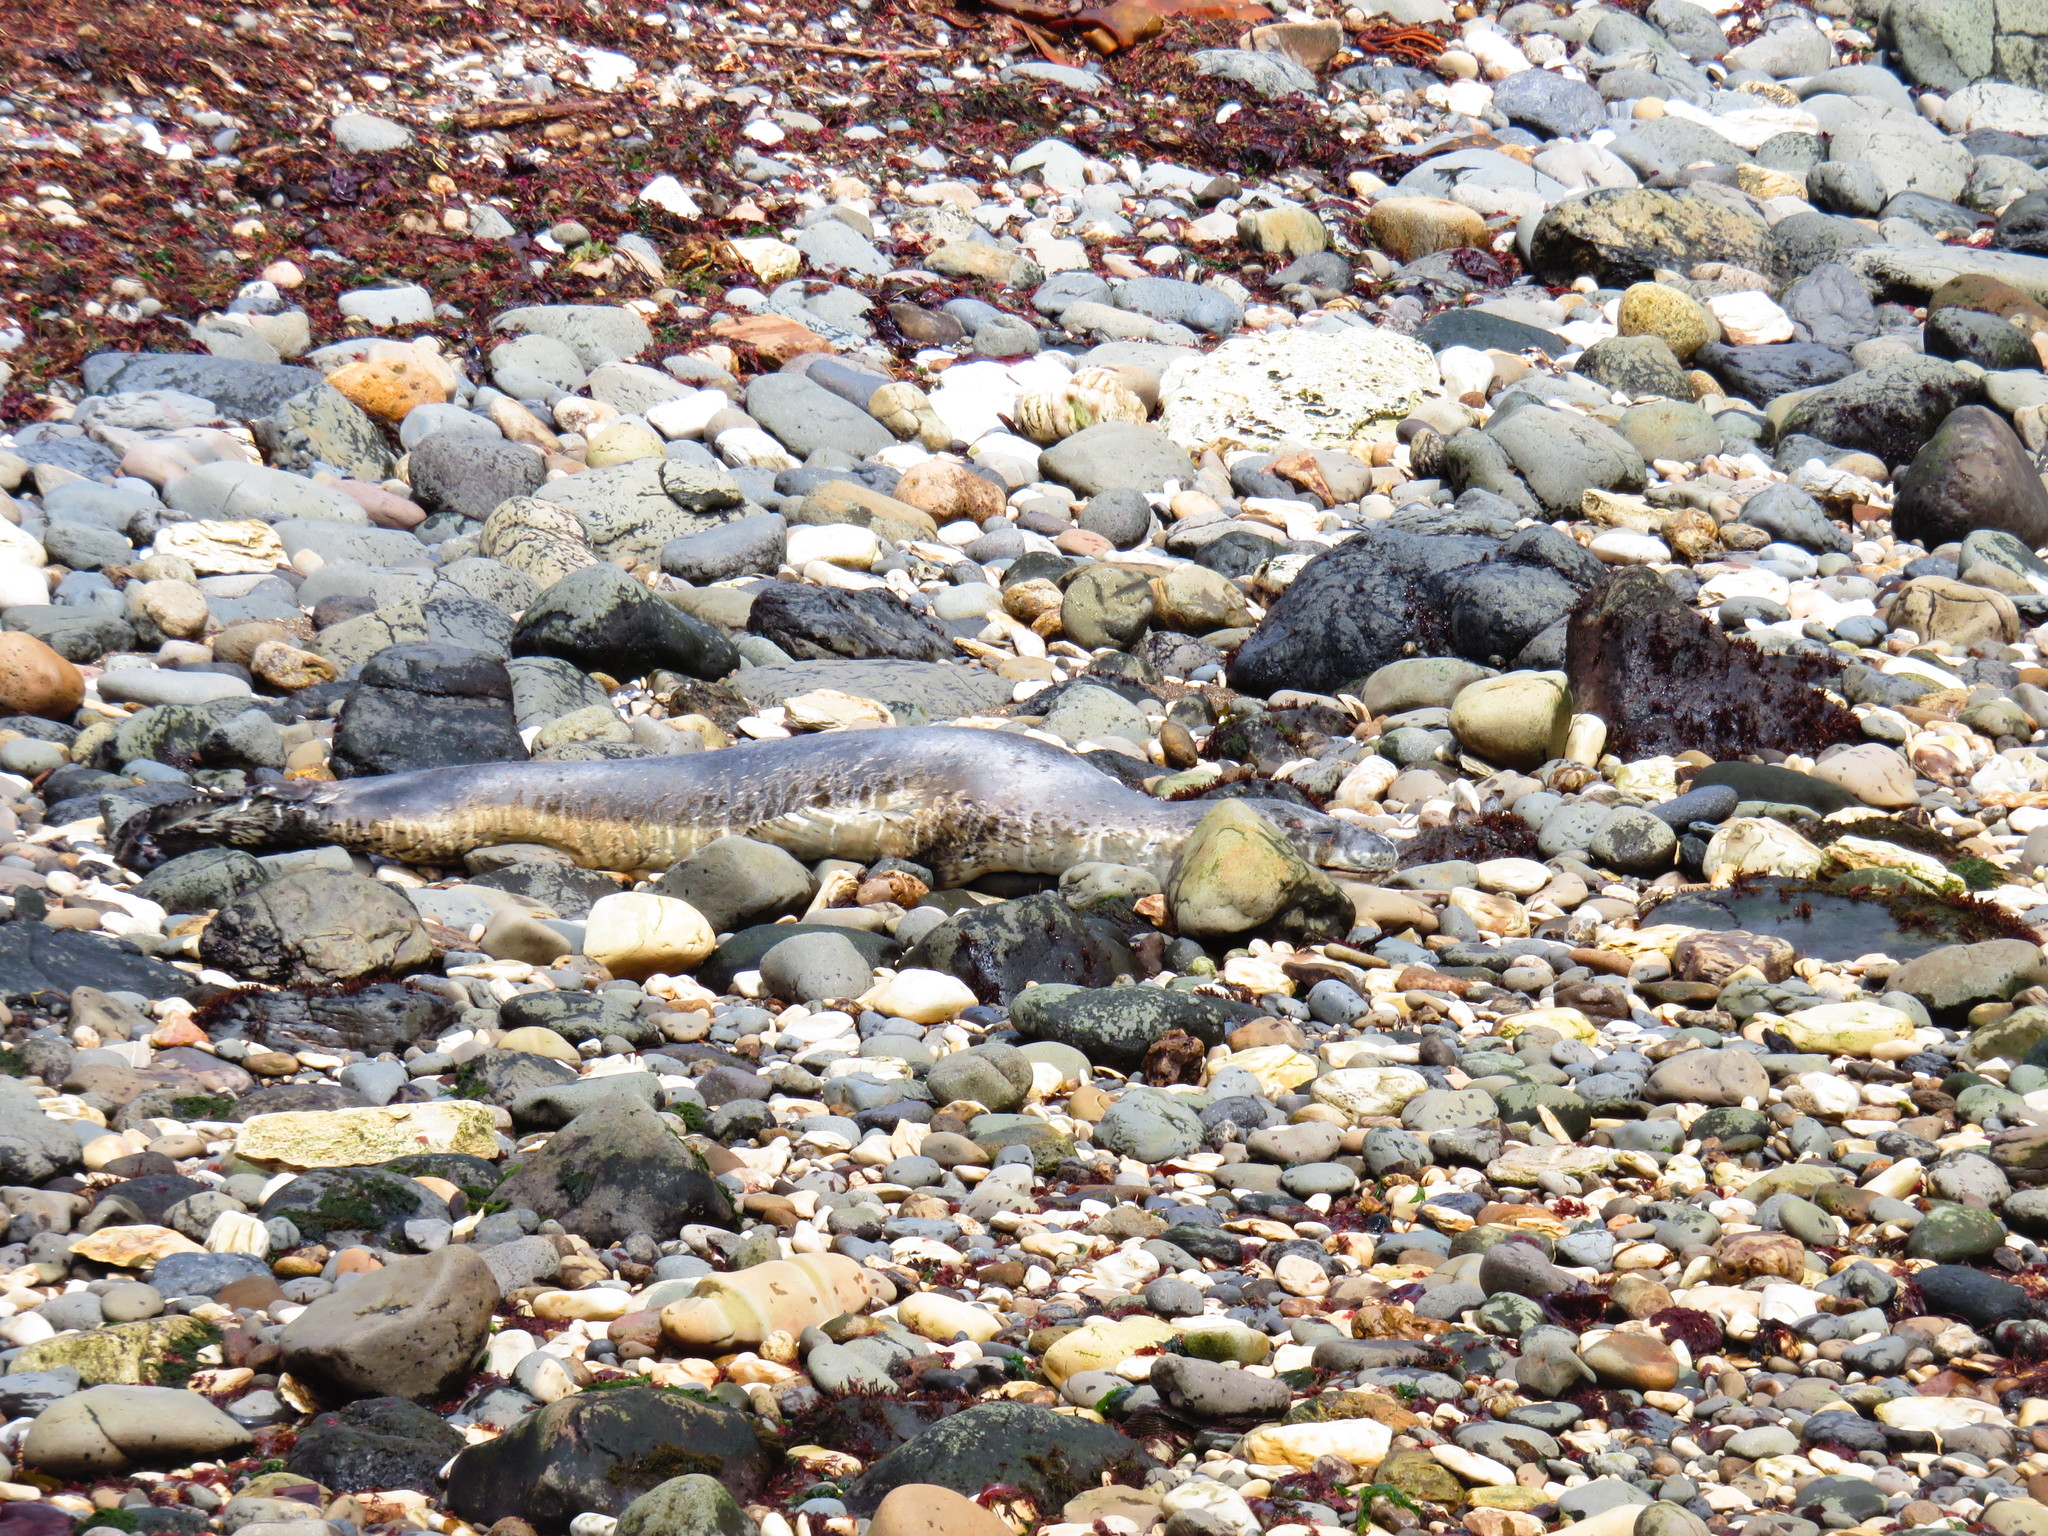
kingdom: Animalia
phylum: Chordata
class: Mammalia
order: Carnivora
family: Phocidae
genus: Hydrurga
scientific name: Hydrurga leptonyx
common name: Leopard seal
